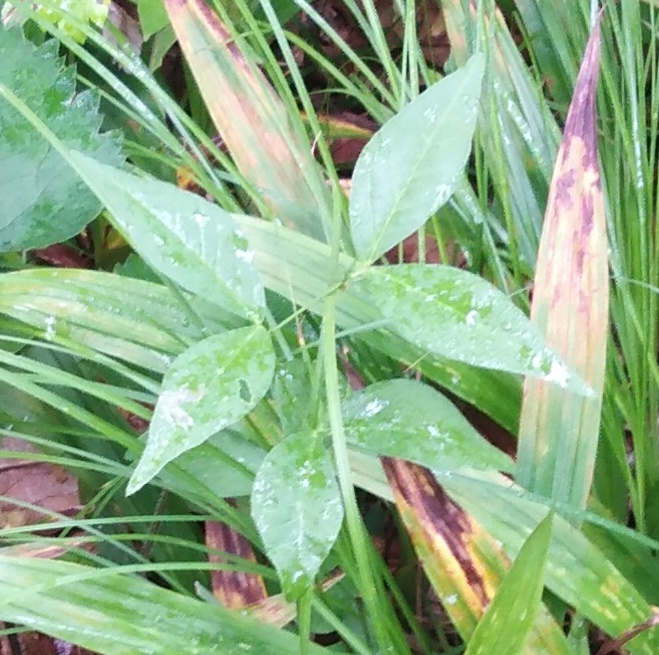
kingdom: Plantae
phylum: Tracheophyta
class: Magnoliopsida
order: Fabales
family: Fabaceae
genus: Vicia
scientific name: Vicia unijuga
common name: Two-leaf vetch
